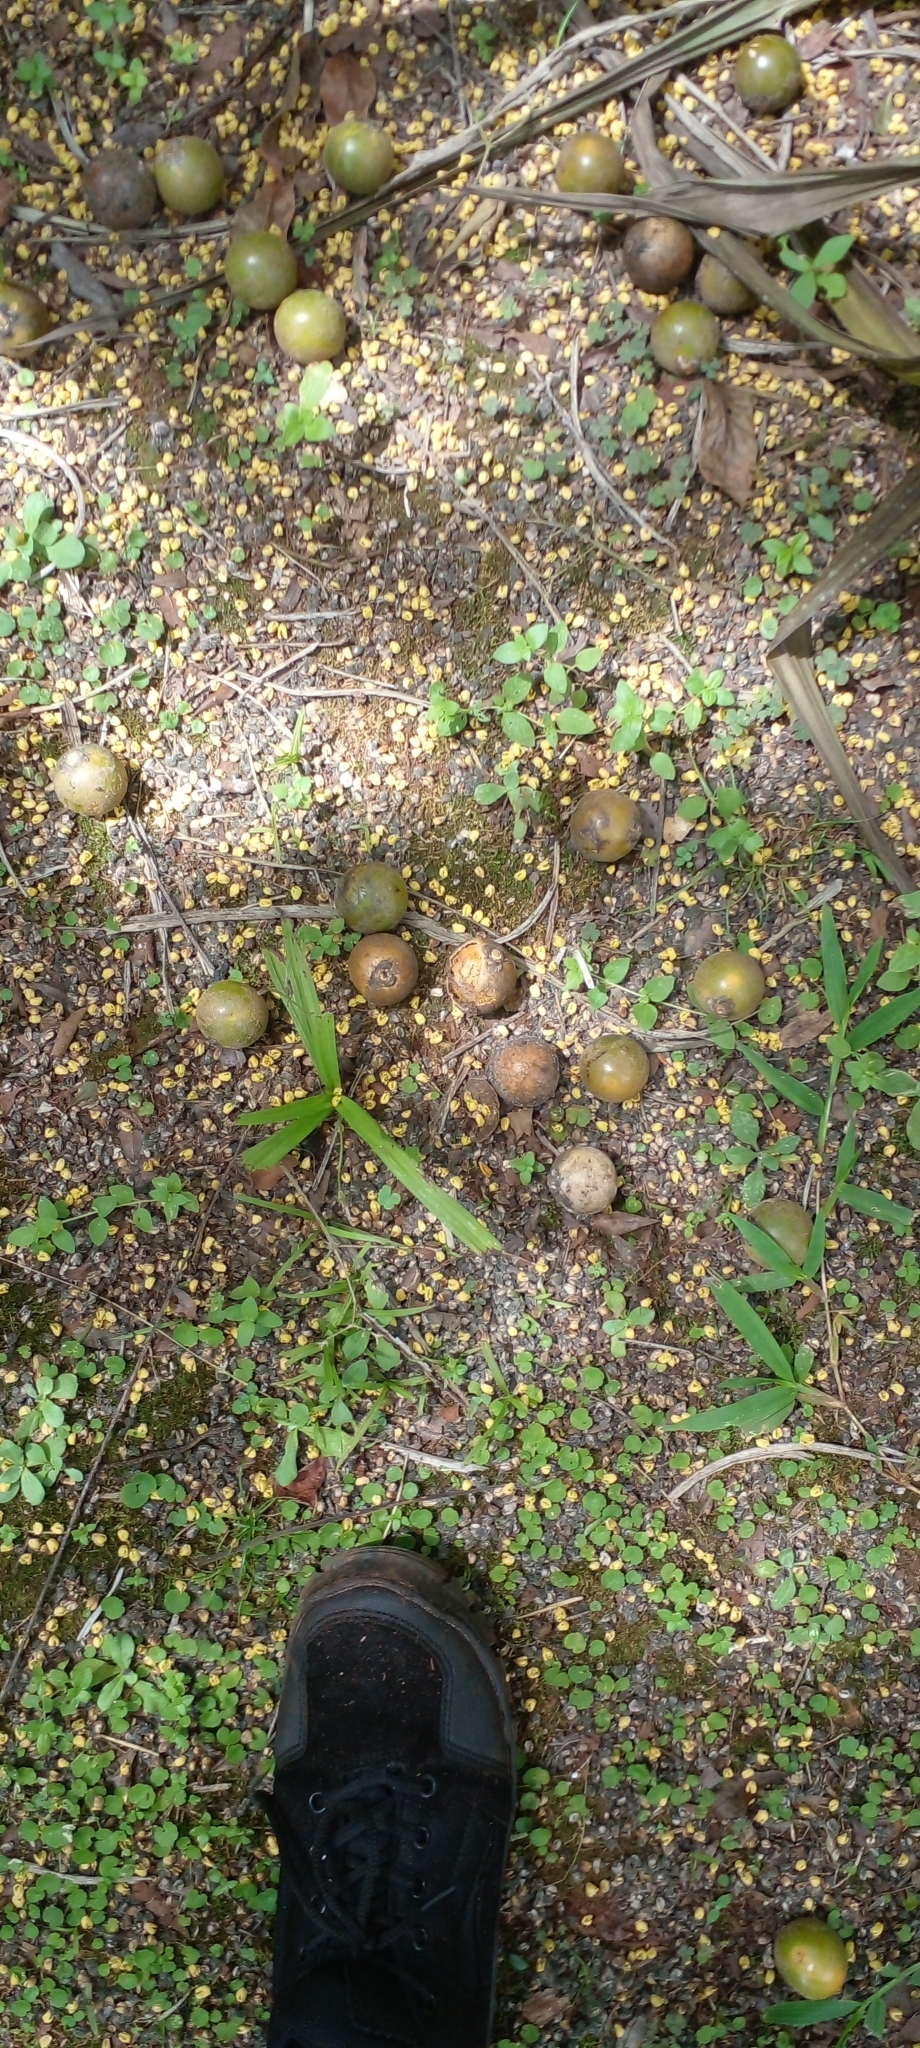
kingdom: Plantae
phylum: Tracheophyta
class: Liliopsida
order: Arecales
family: Arecaceae
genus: Acrocomia
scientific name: Acrocomia aculeata
